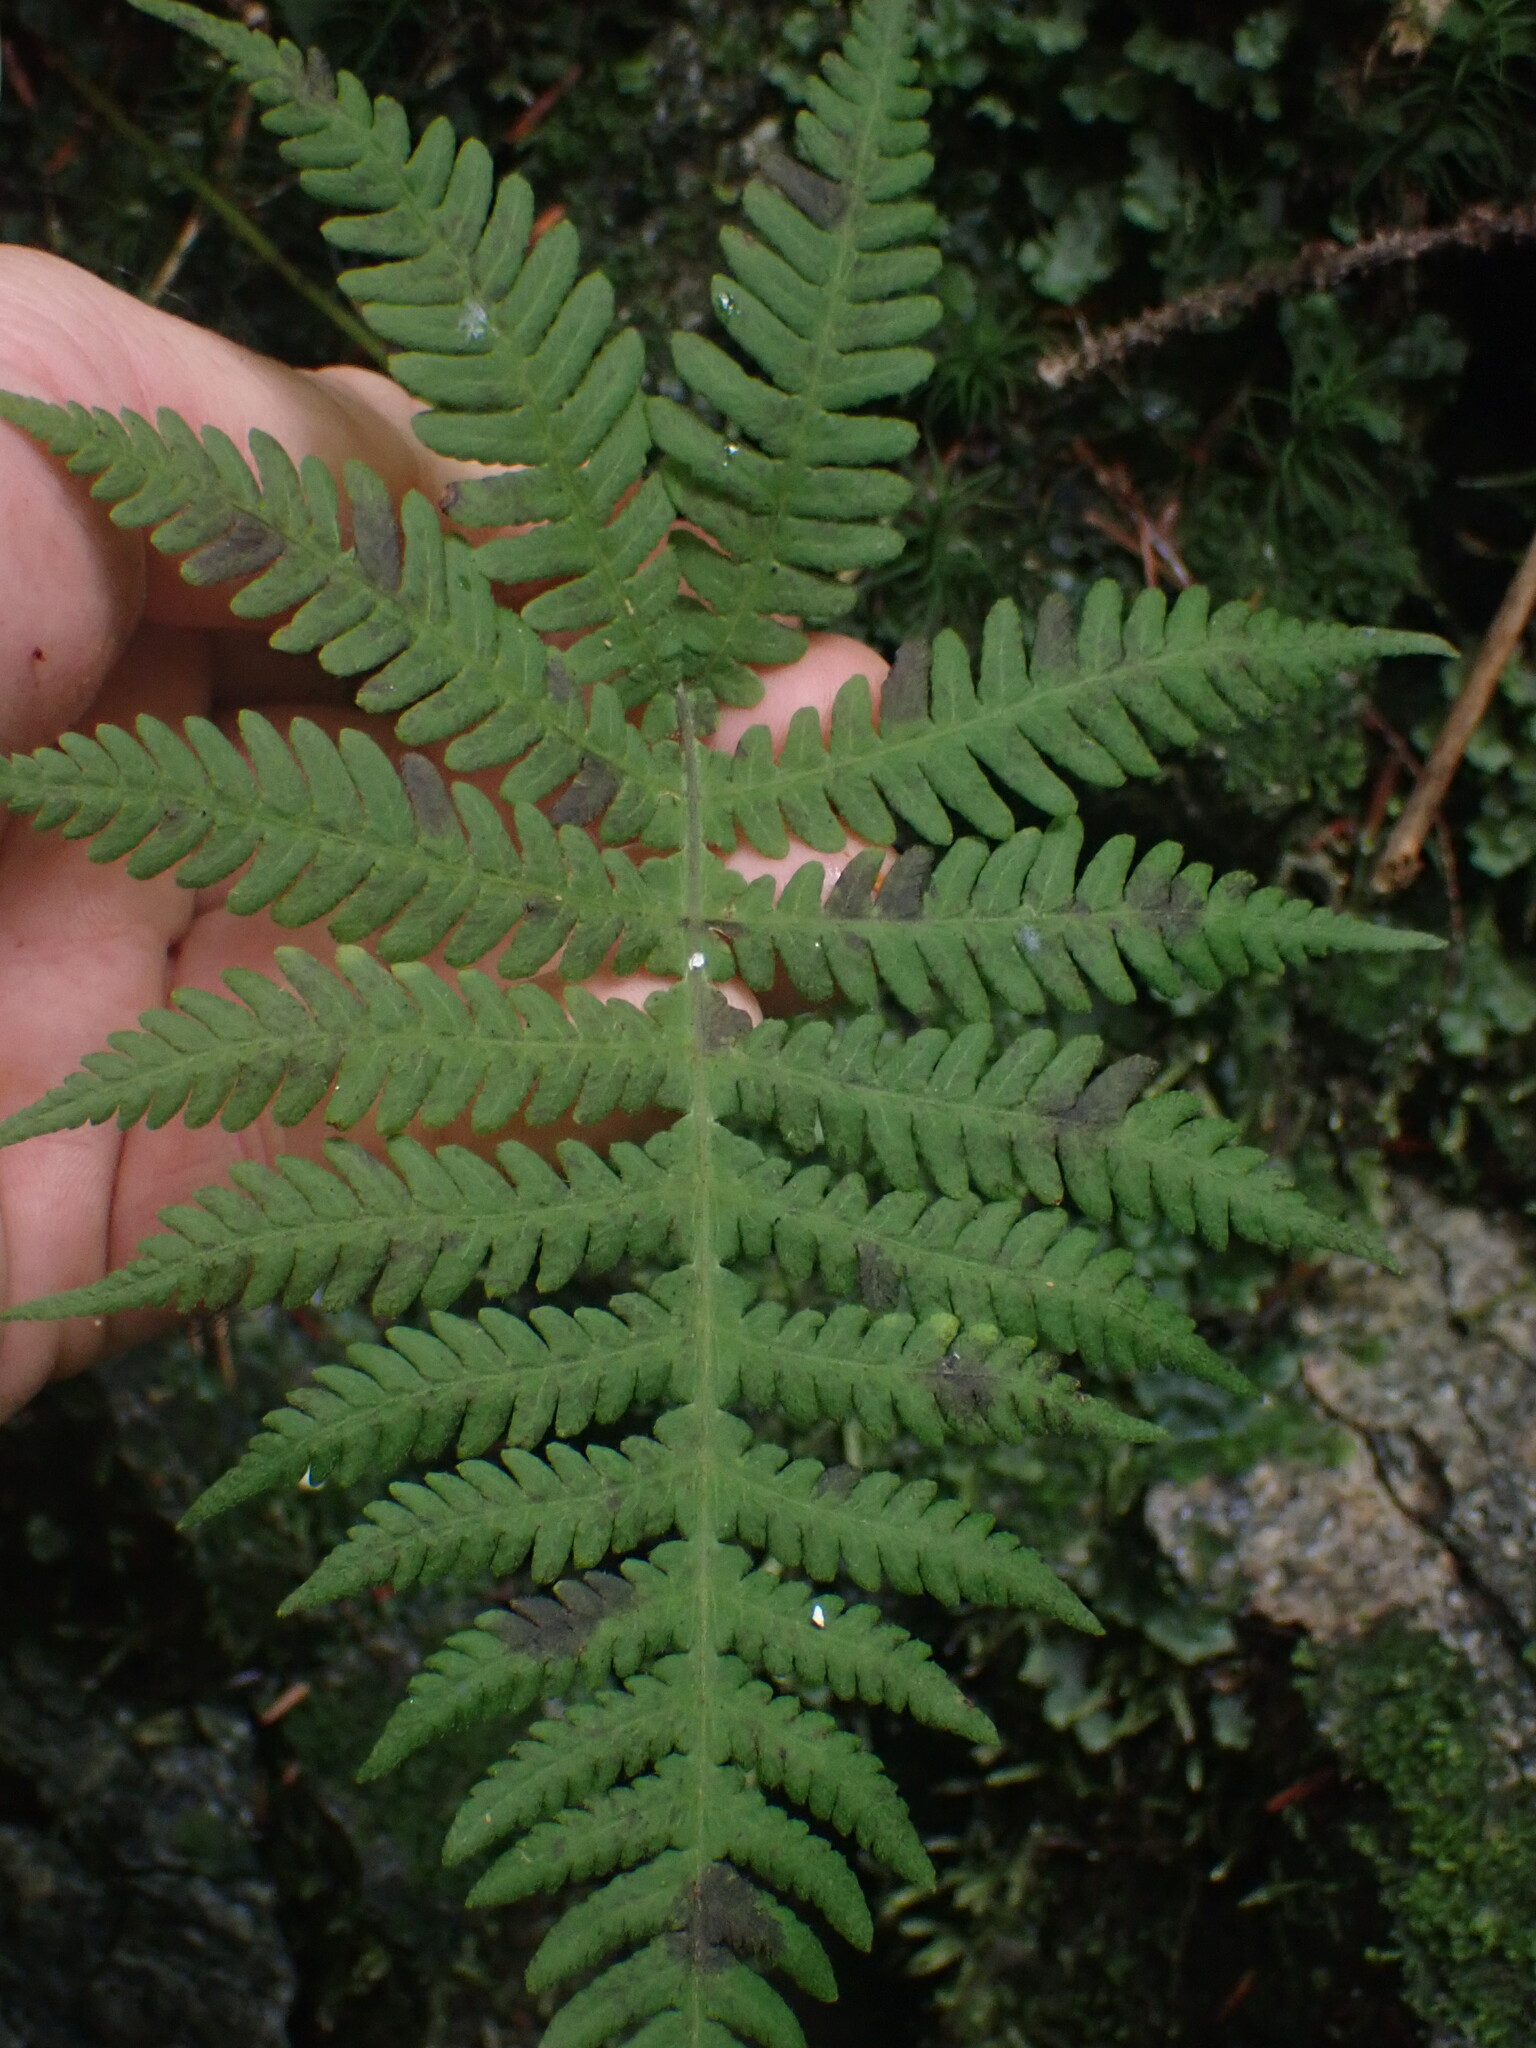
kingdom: Plantae
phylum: Tracheophyta
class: Polypodiopsida
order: Polypodiales
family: Thelypteridaceae
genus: Phegopteris
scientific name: Phegopteris connectilis
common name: Beech fern
